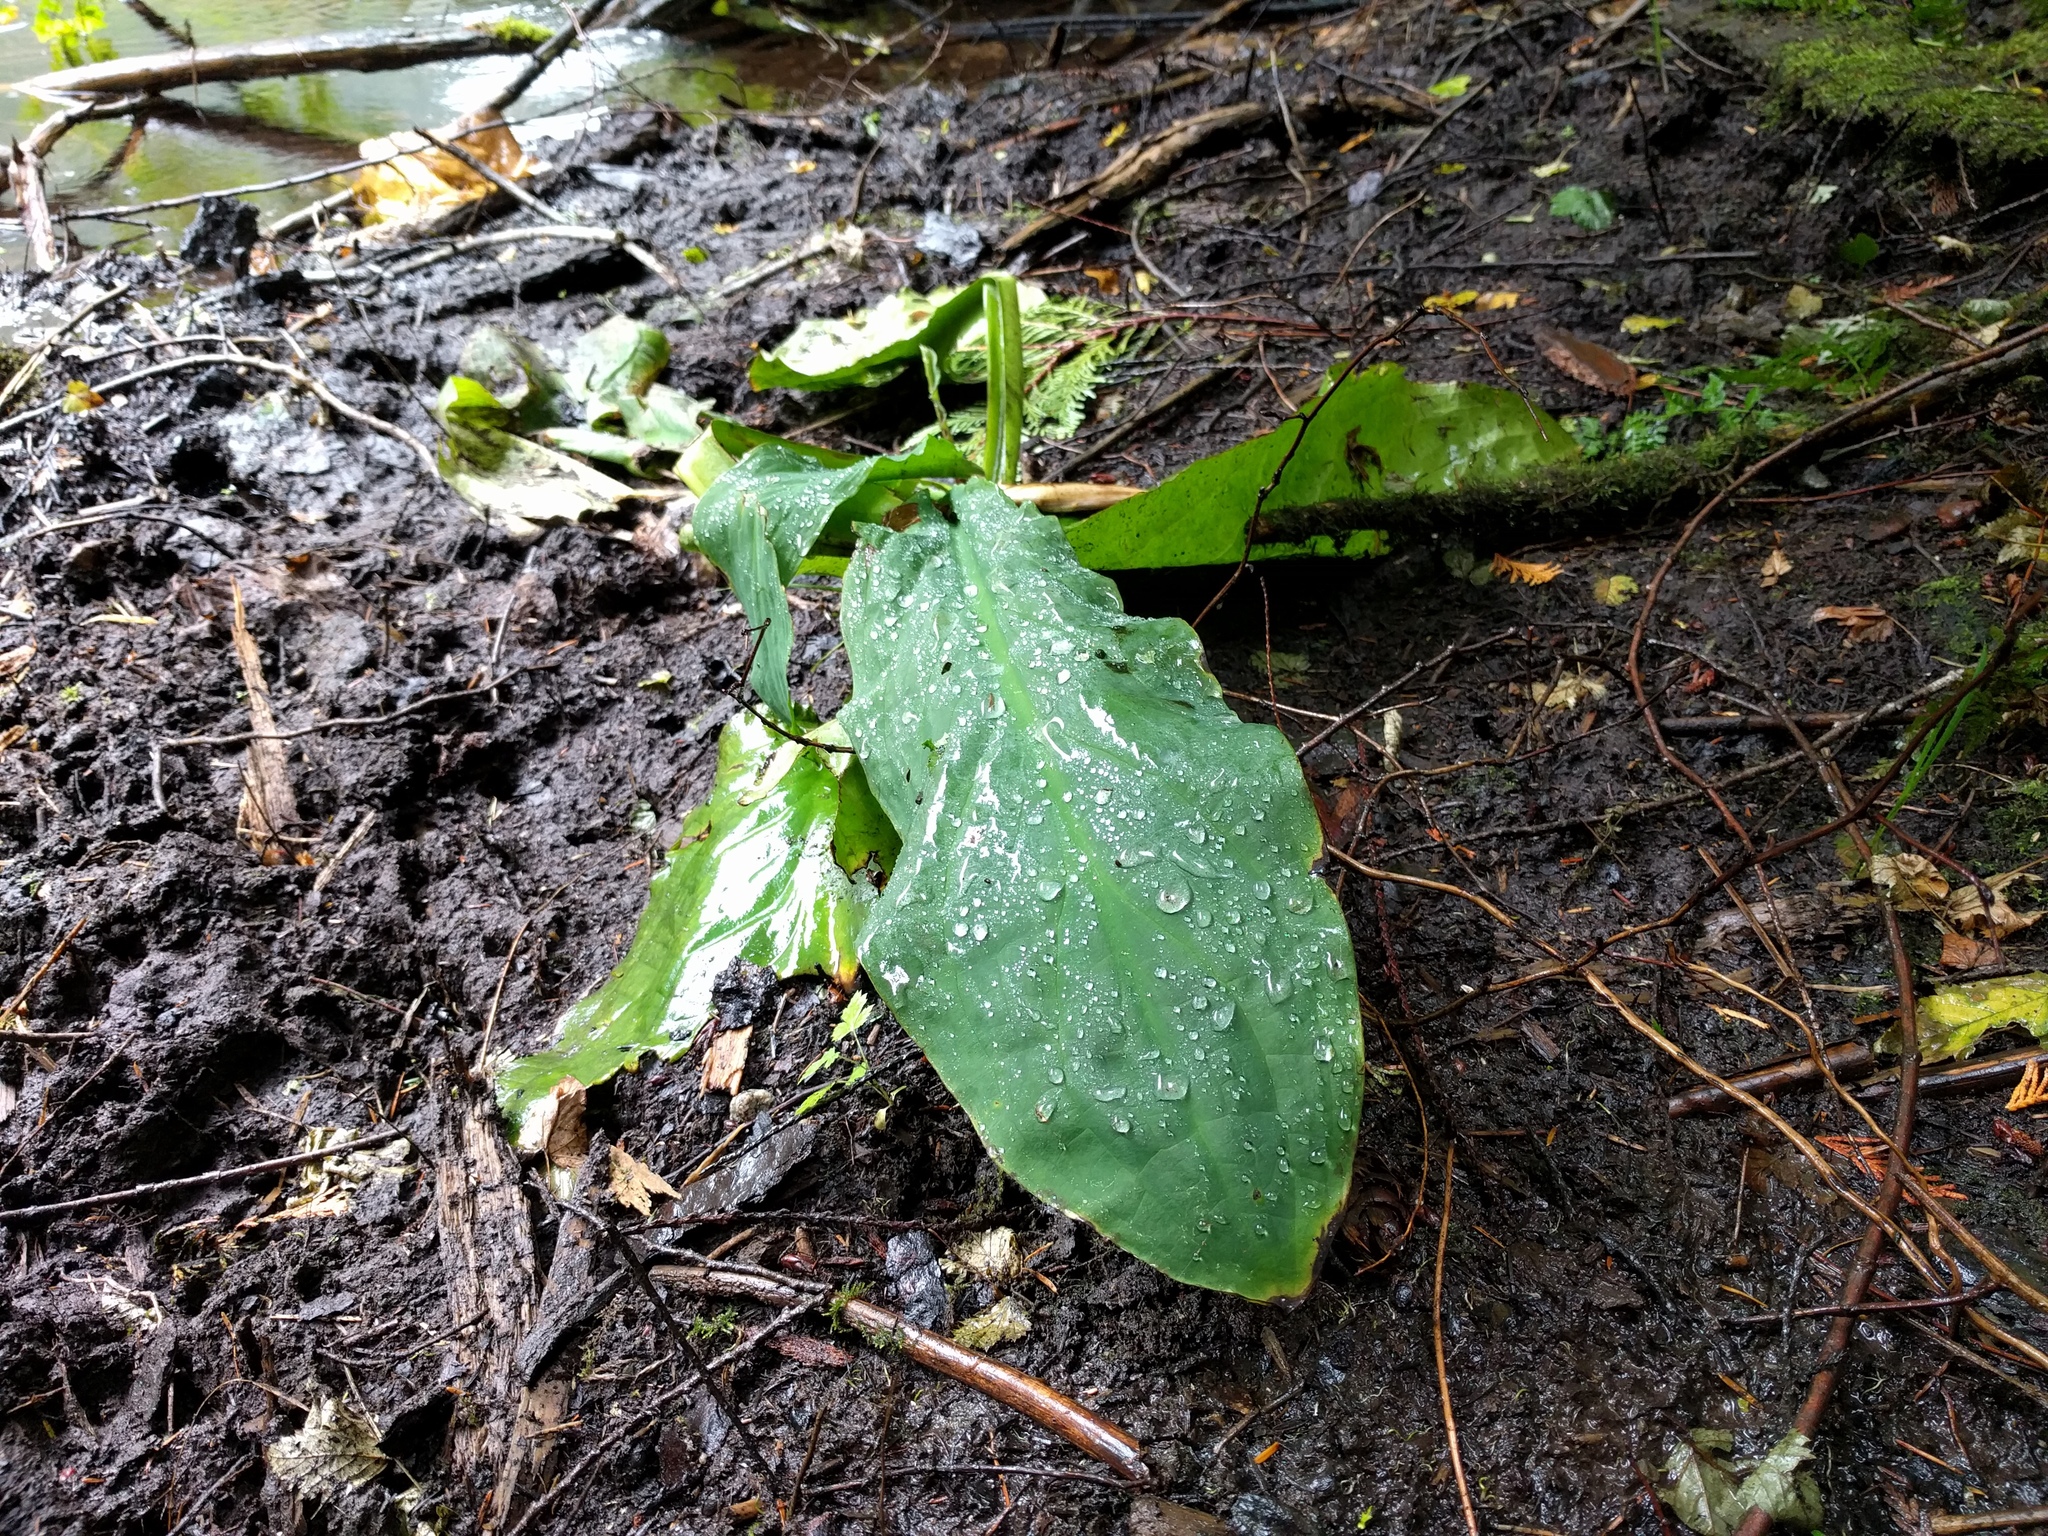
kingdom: Plantae
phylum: Tracheophyta
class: Liliopsida
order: Alismatales
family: Araceae
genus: Lysichiton
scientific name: Lysichiton americanus
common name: American skunk cabbage
